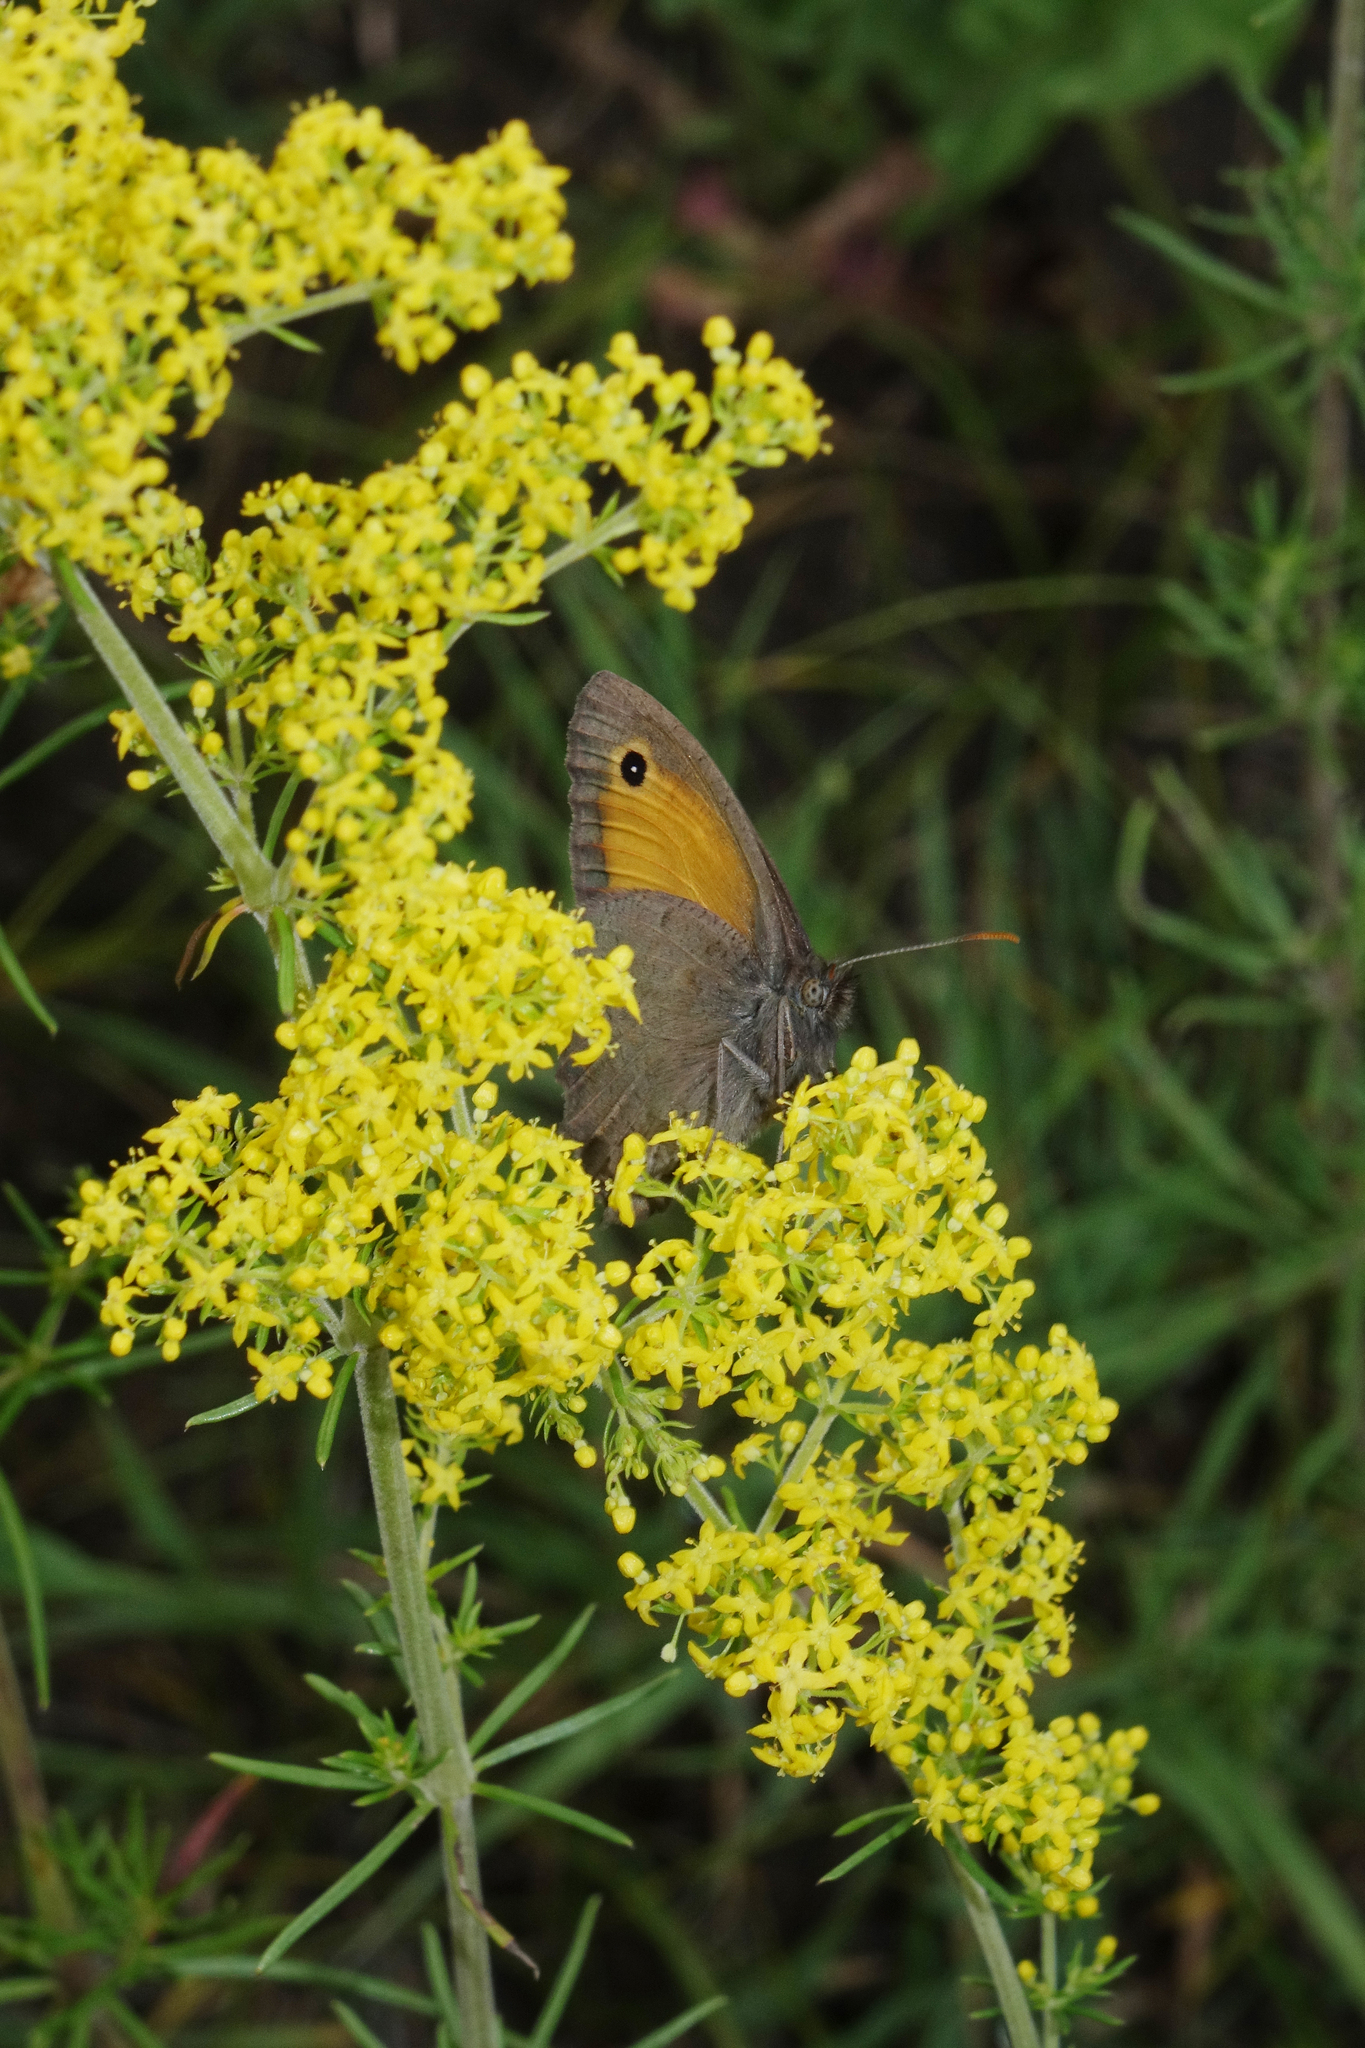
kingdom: Animalia
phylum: Arthropoda
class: Insecta
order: Lepidoptera
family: Nymphalidae
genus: Hyponephele
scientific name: Hyponephele lycaon
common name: Dusky meadow brown
